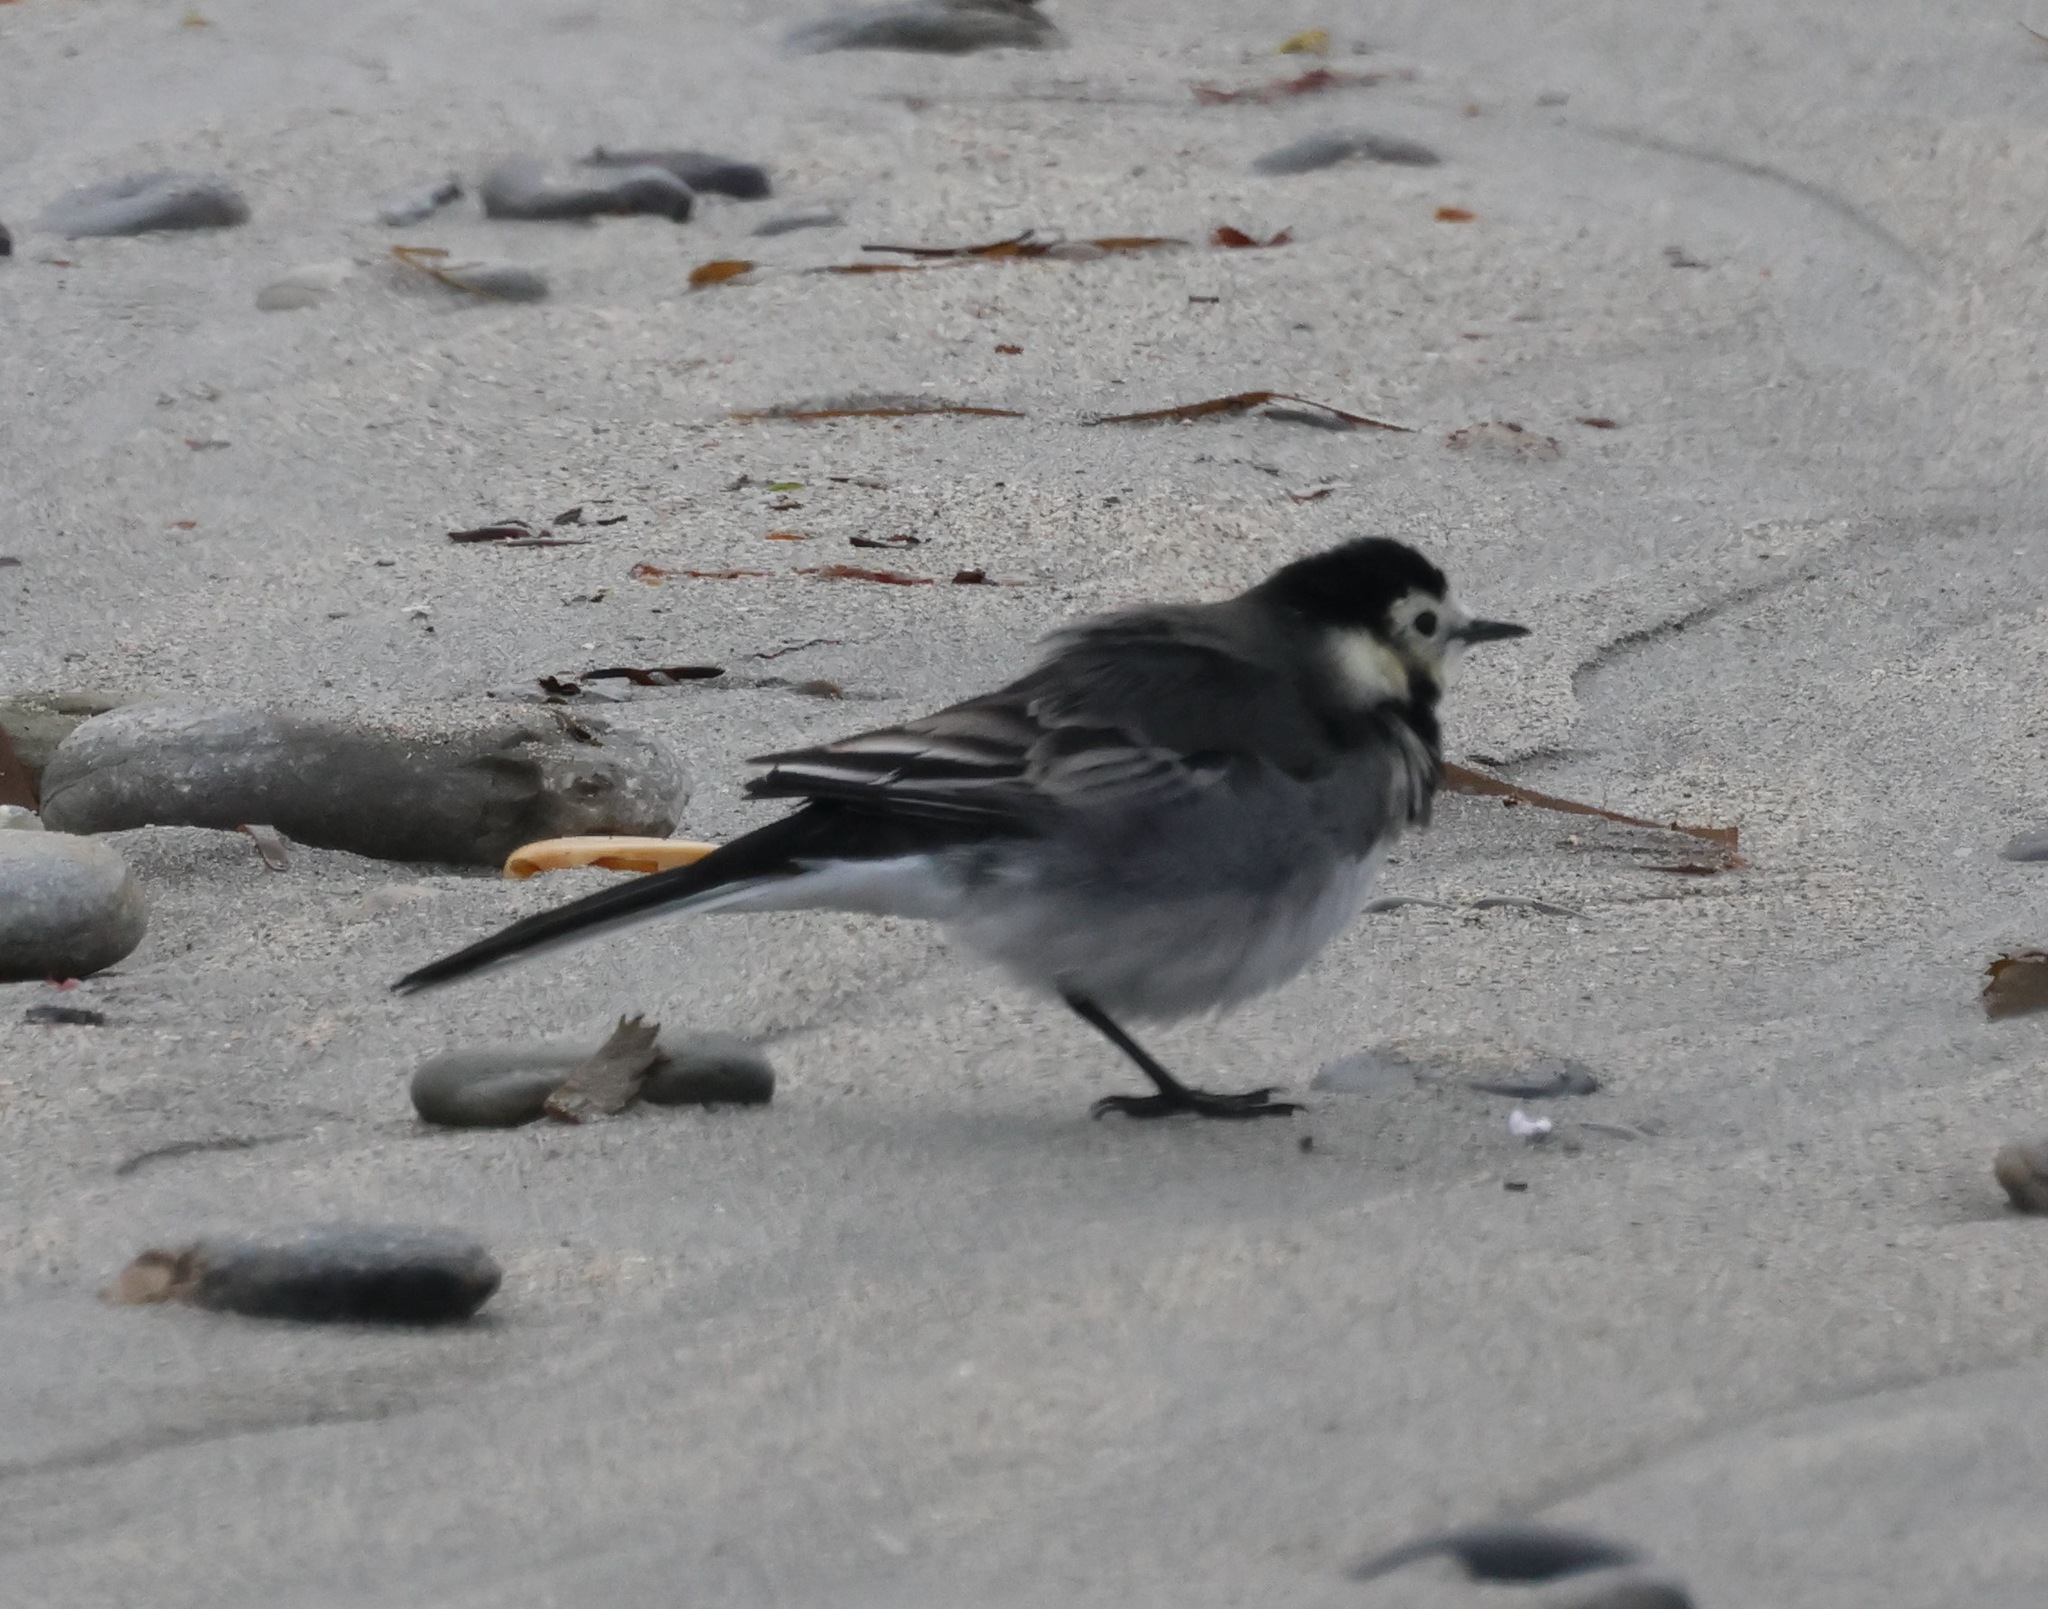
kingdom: Animalia
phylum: Chordata
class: Aves
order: Passeriformes
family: Motacillidae
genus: Motacilla
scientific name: Motacilla alba
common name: White wagtail
